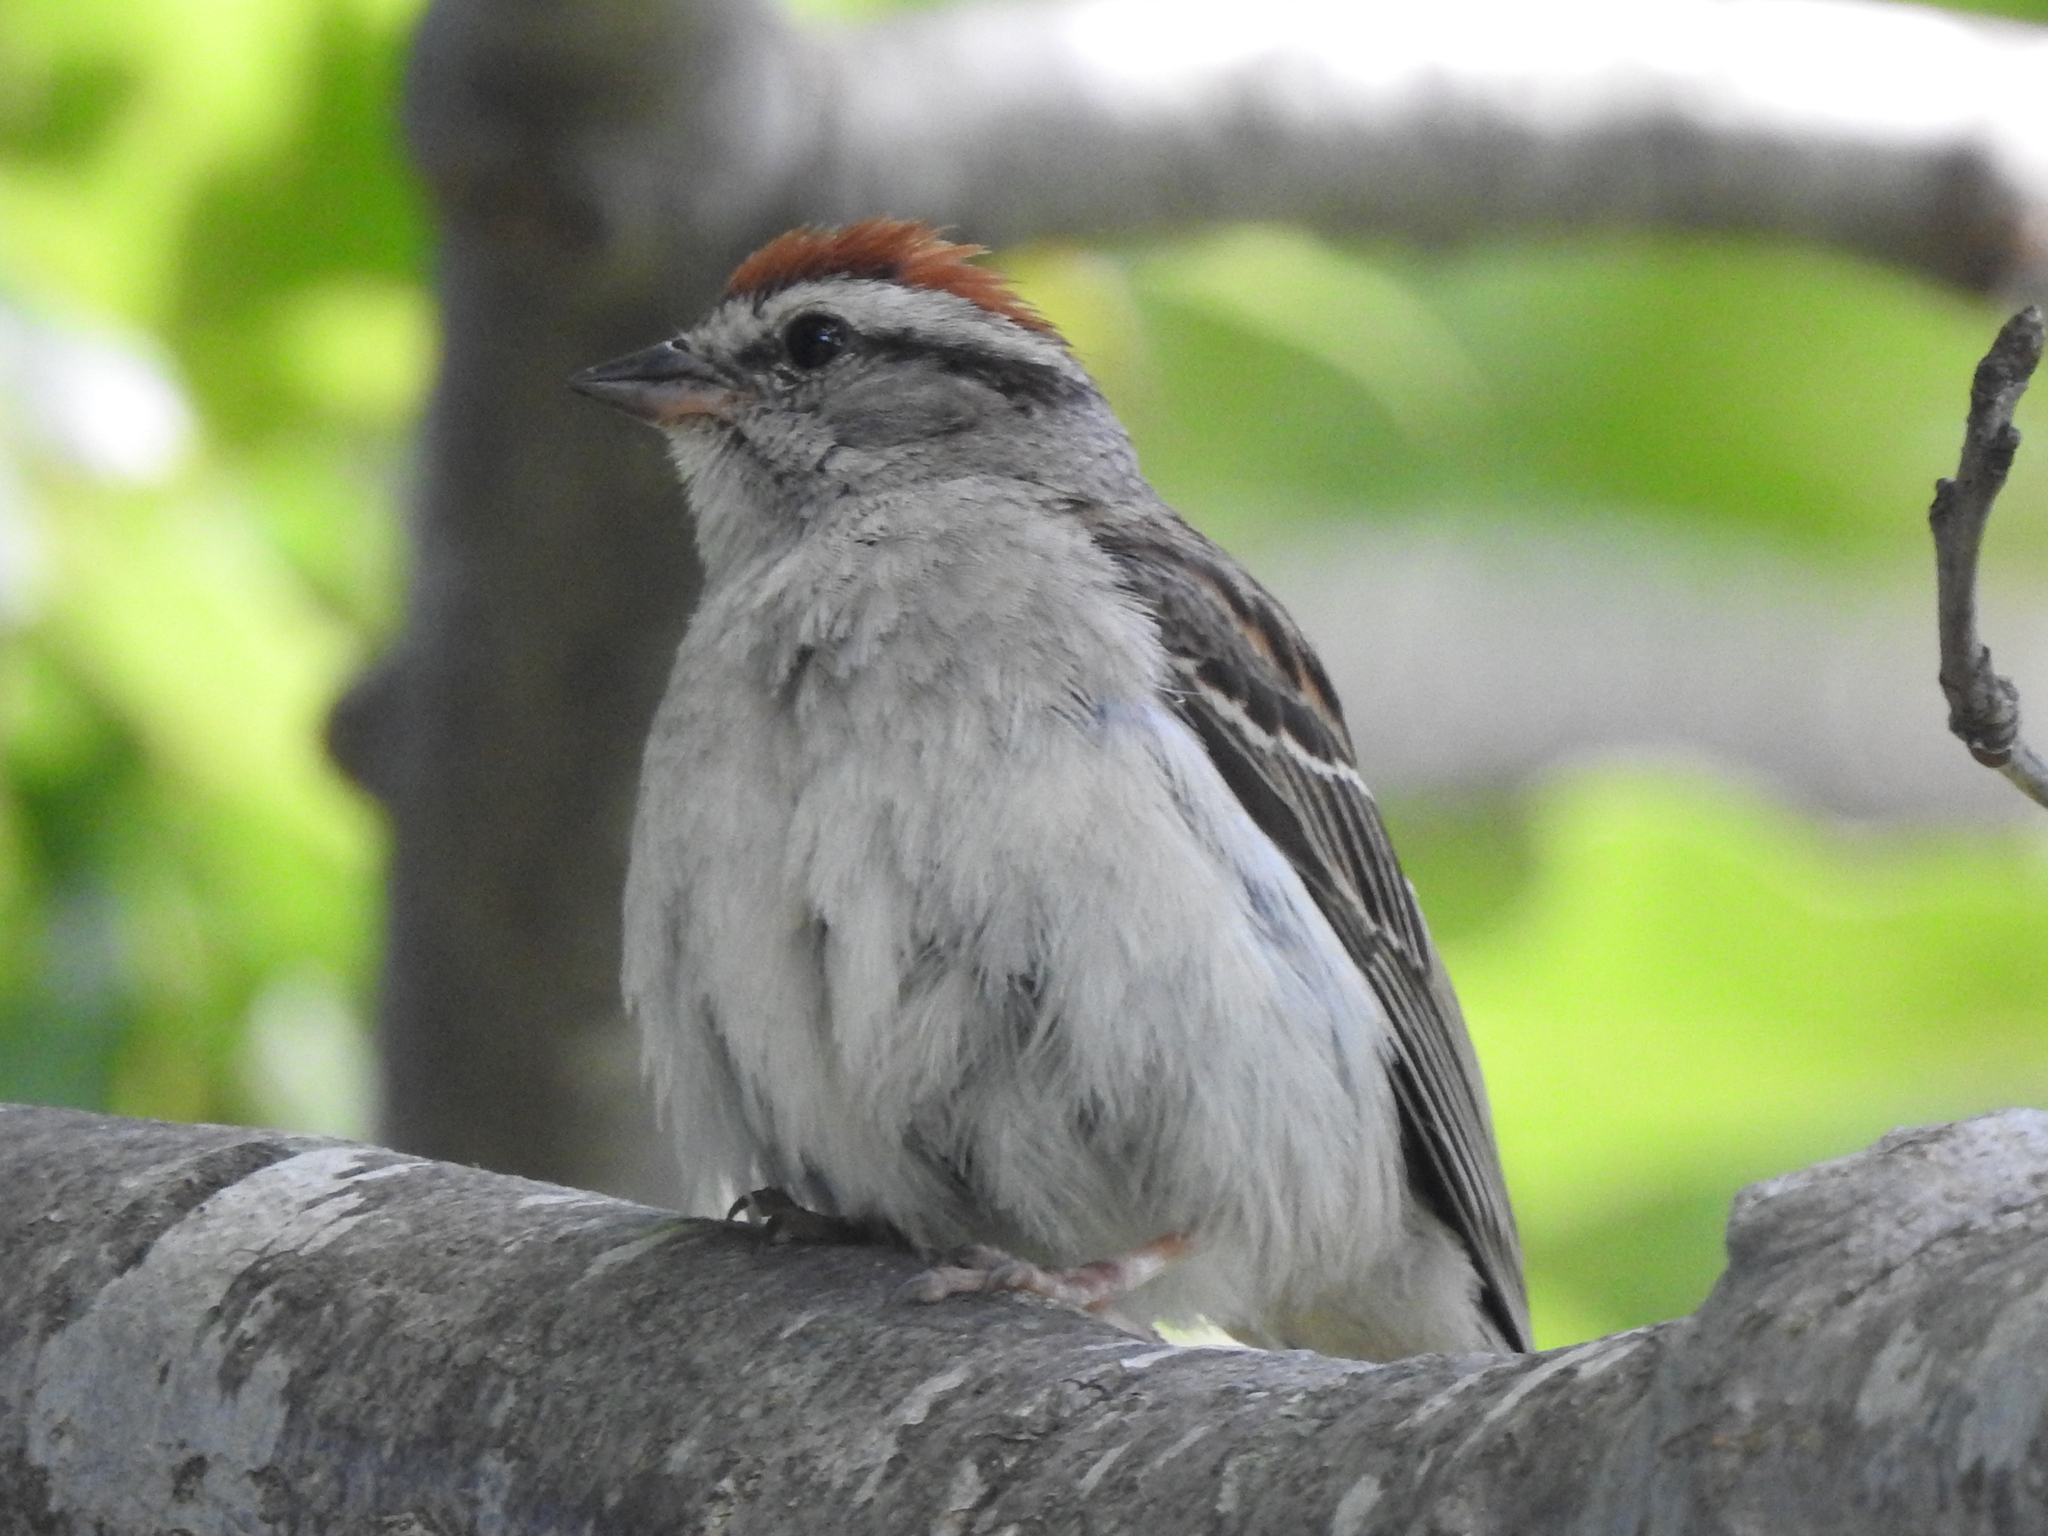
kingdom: Animalia
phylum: Chordata
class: Aves
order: Passeriformes
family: Passerellidae
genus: Spizella
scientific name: Spizella passerina
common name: Chipping sparrow
